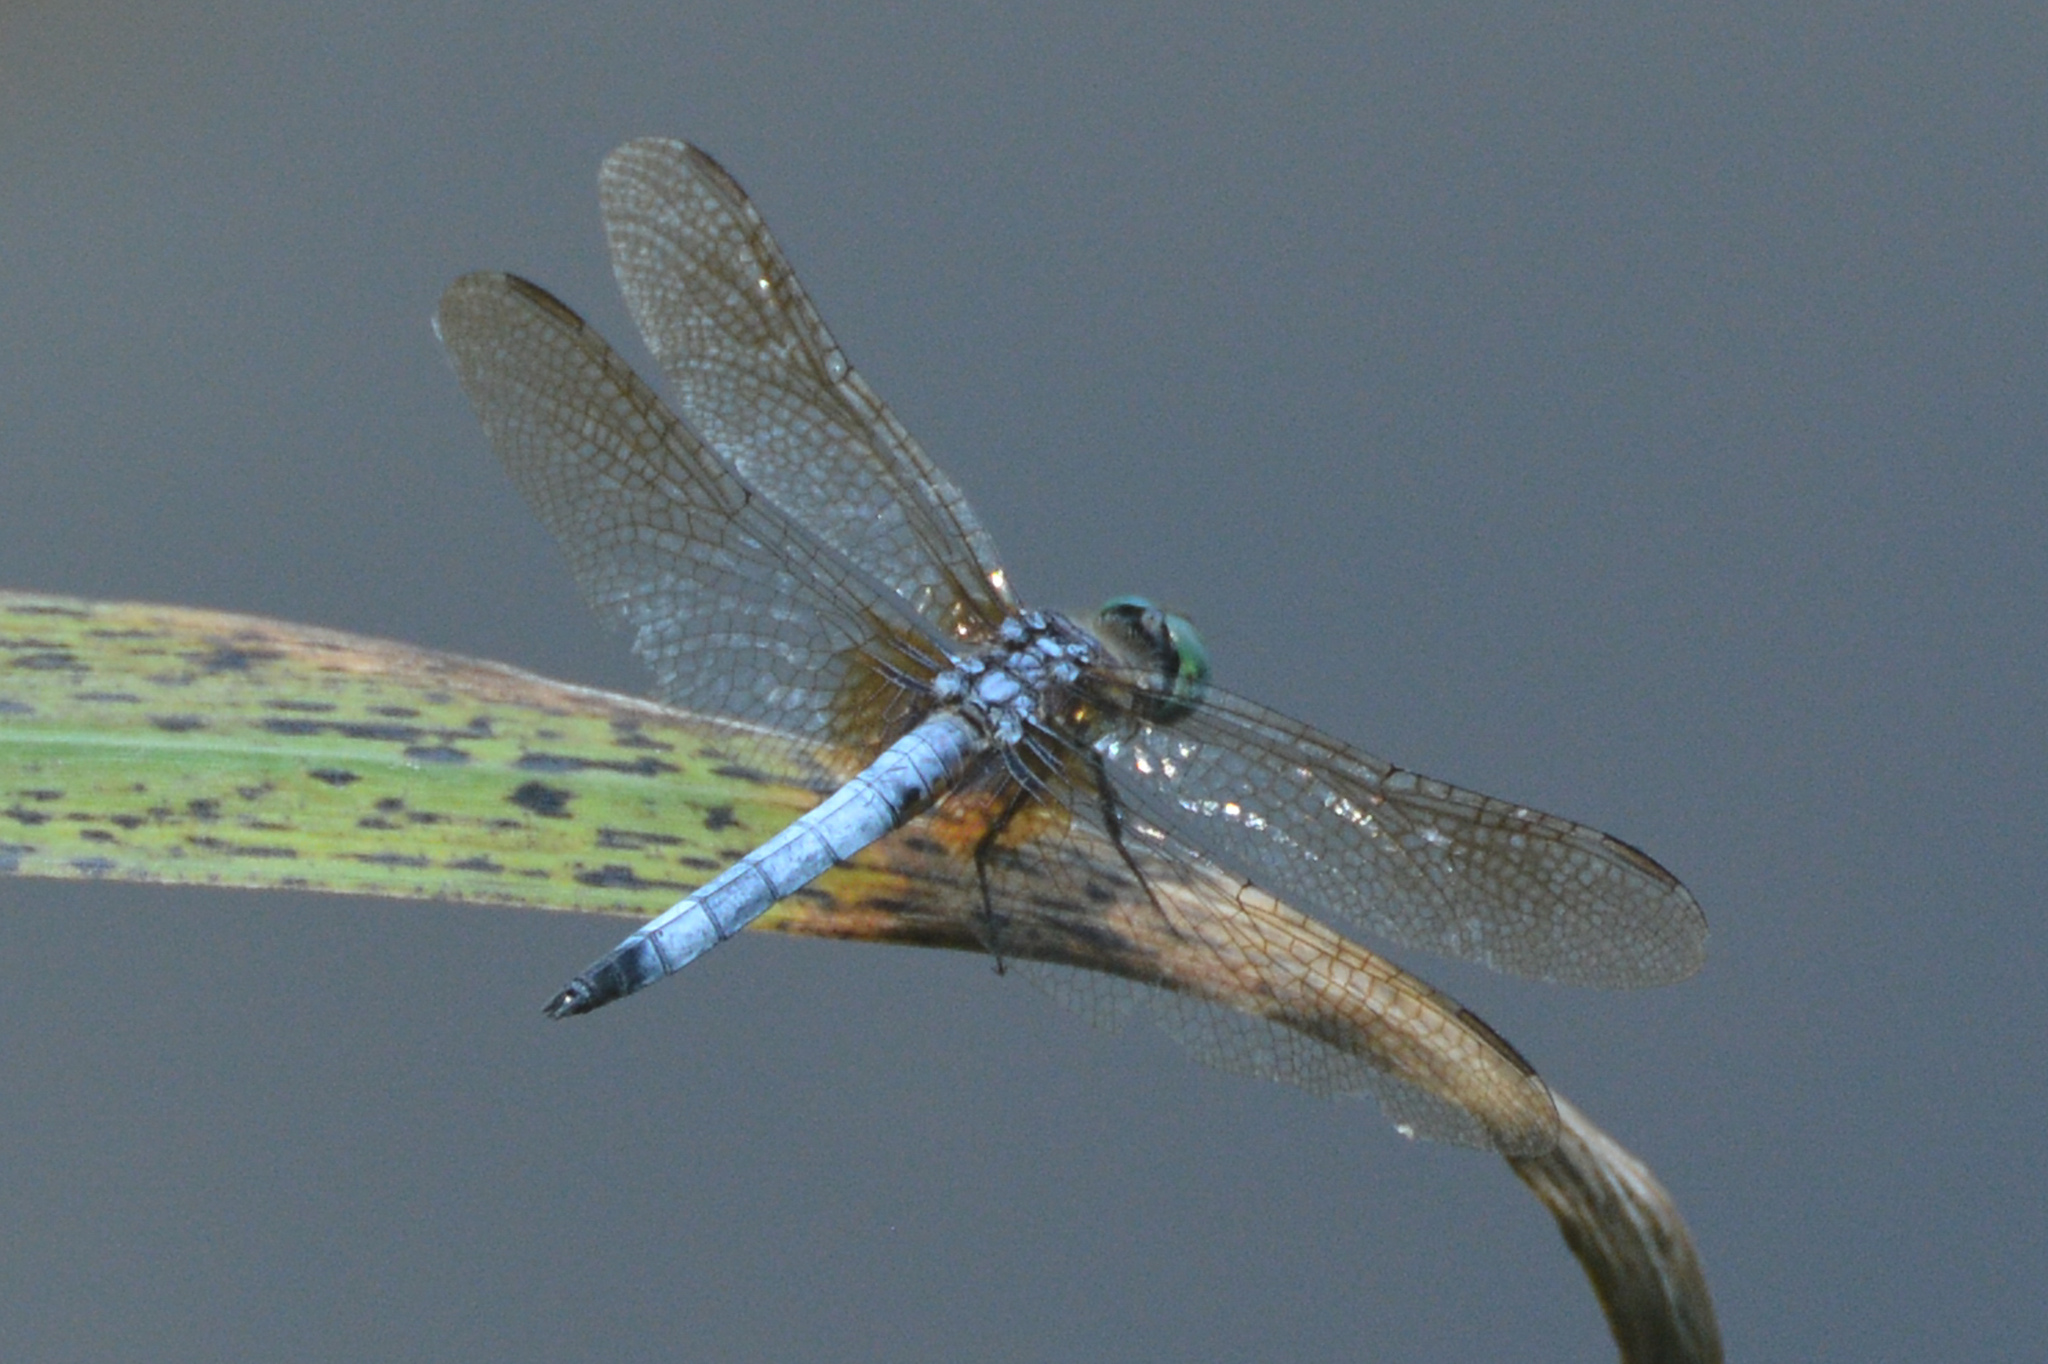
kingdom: Animalia
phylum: Arthropoda
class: Insecta
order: Odonata
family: Libellulidae
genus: Pachydiplax
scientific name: Pachydiplax longipennis
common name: Blue dasher
